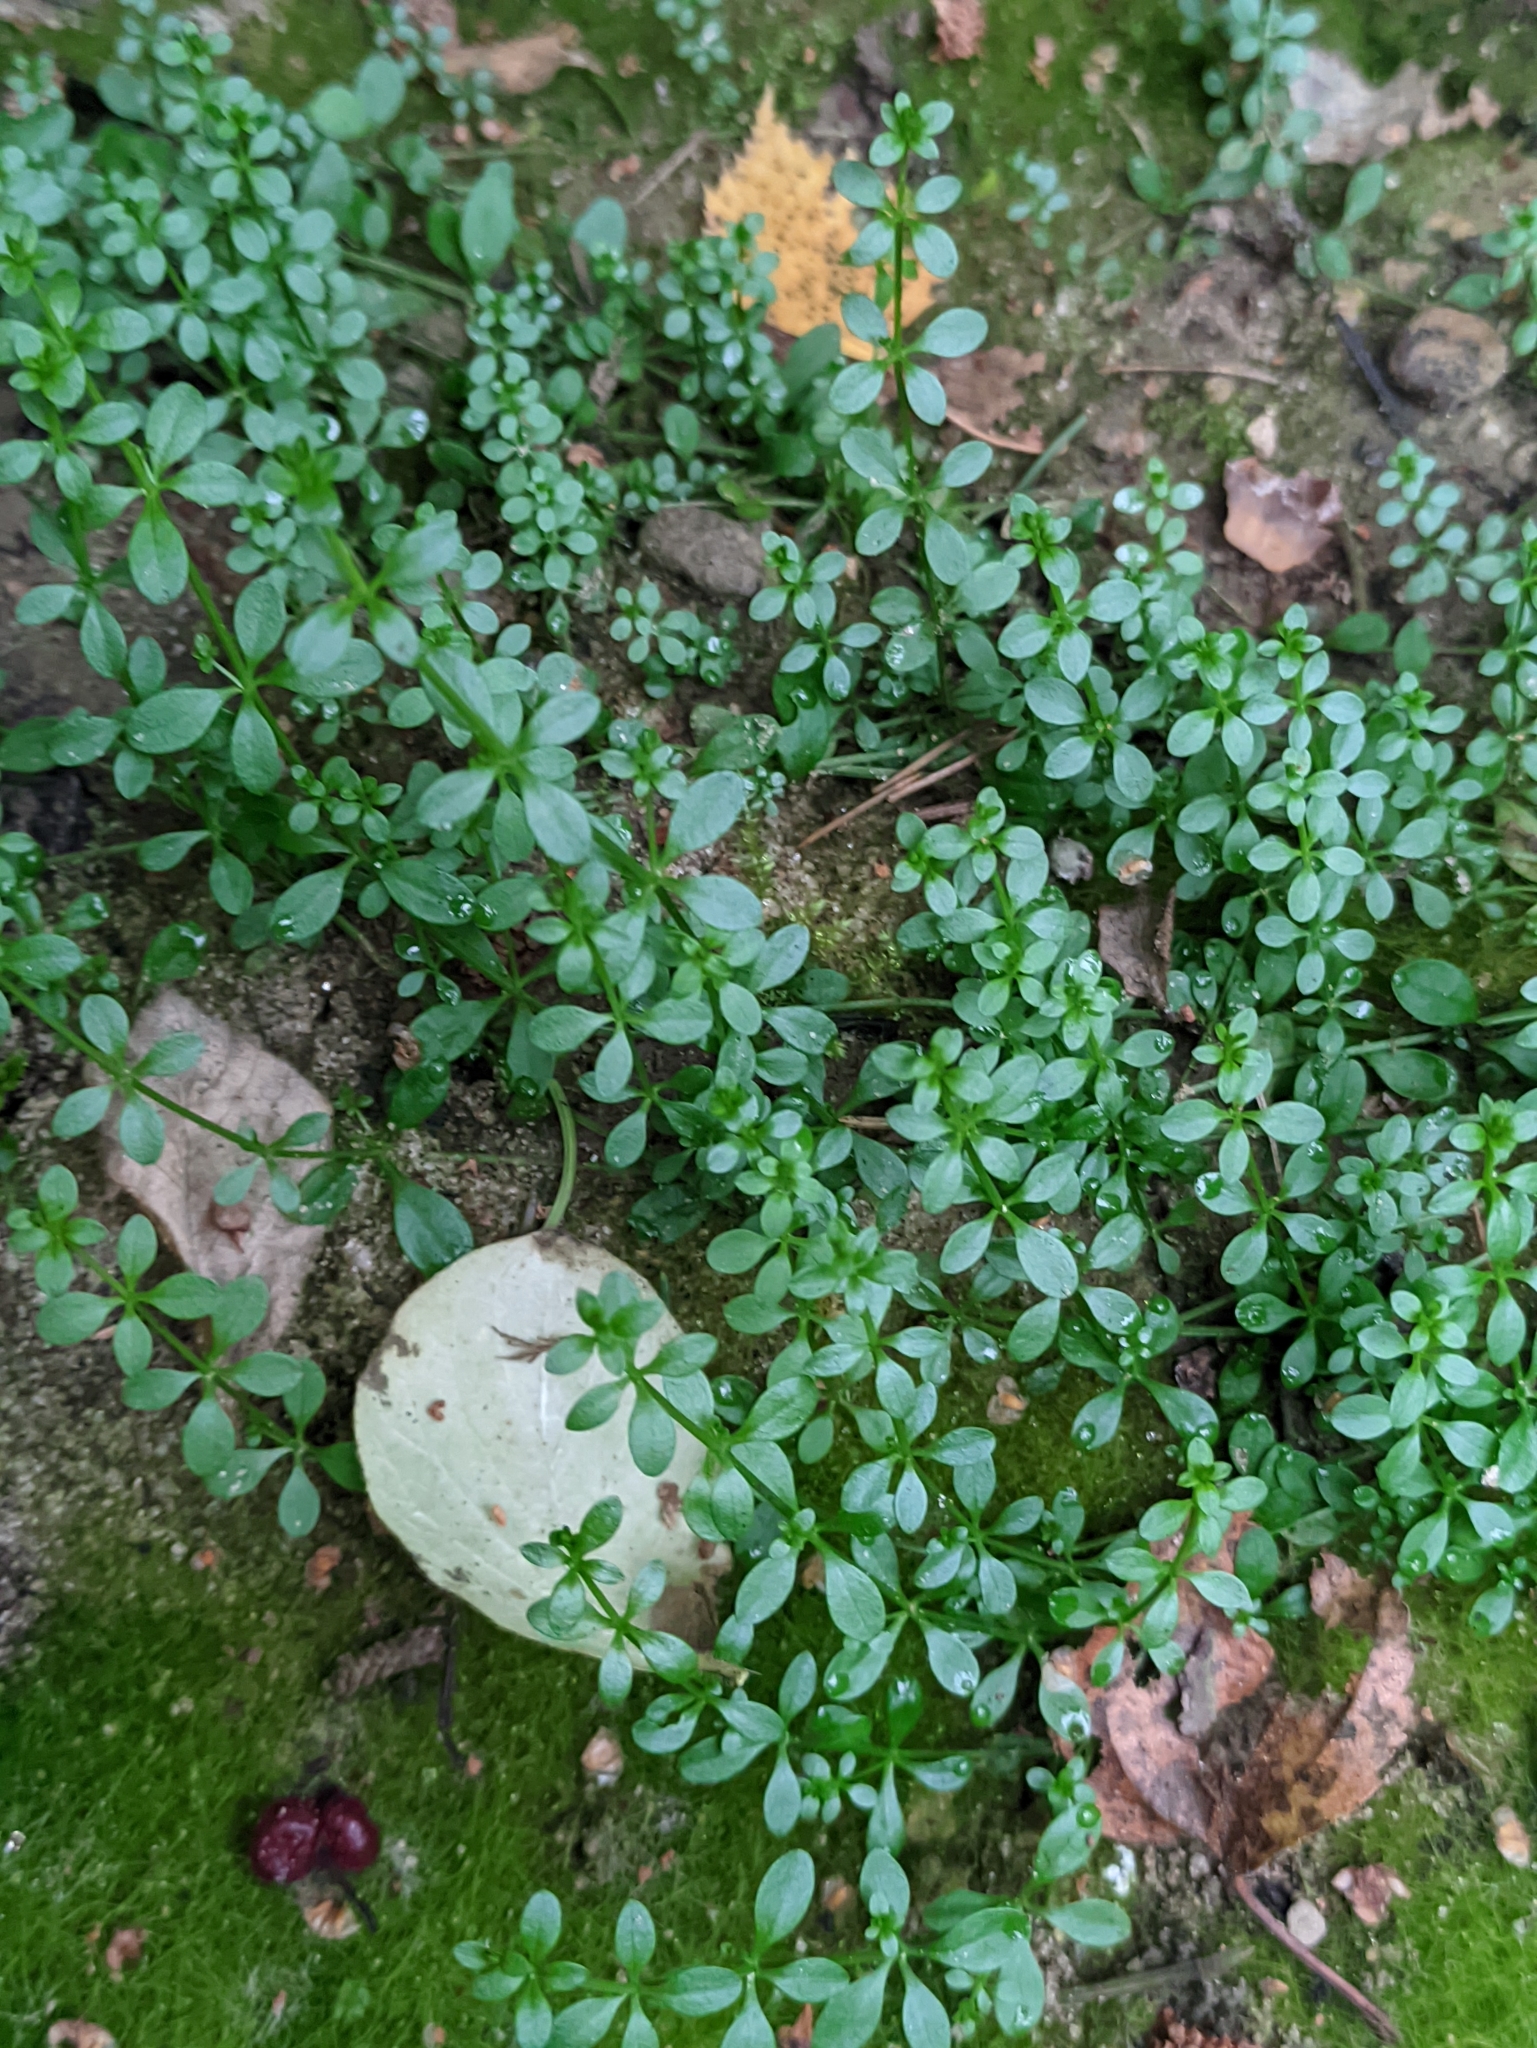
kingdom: Plantae
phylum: Tracheophyta
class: Magnoliopsida
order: Gentianales
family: Rubiaceae
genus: Galium
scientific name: Galium palustre
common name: Common marsh-bedstraw
